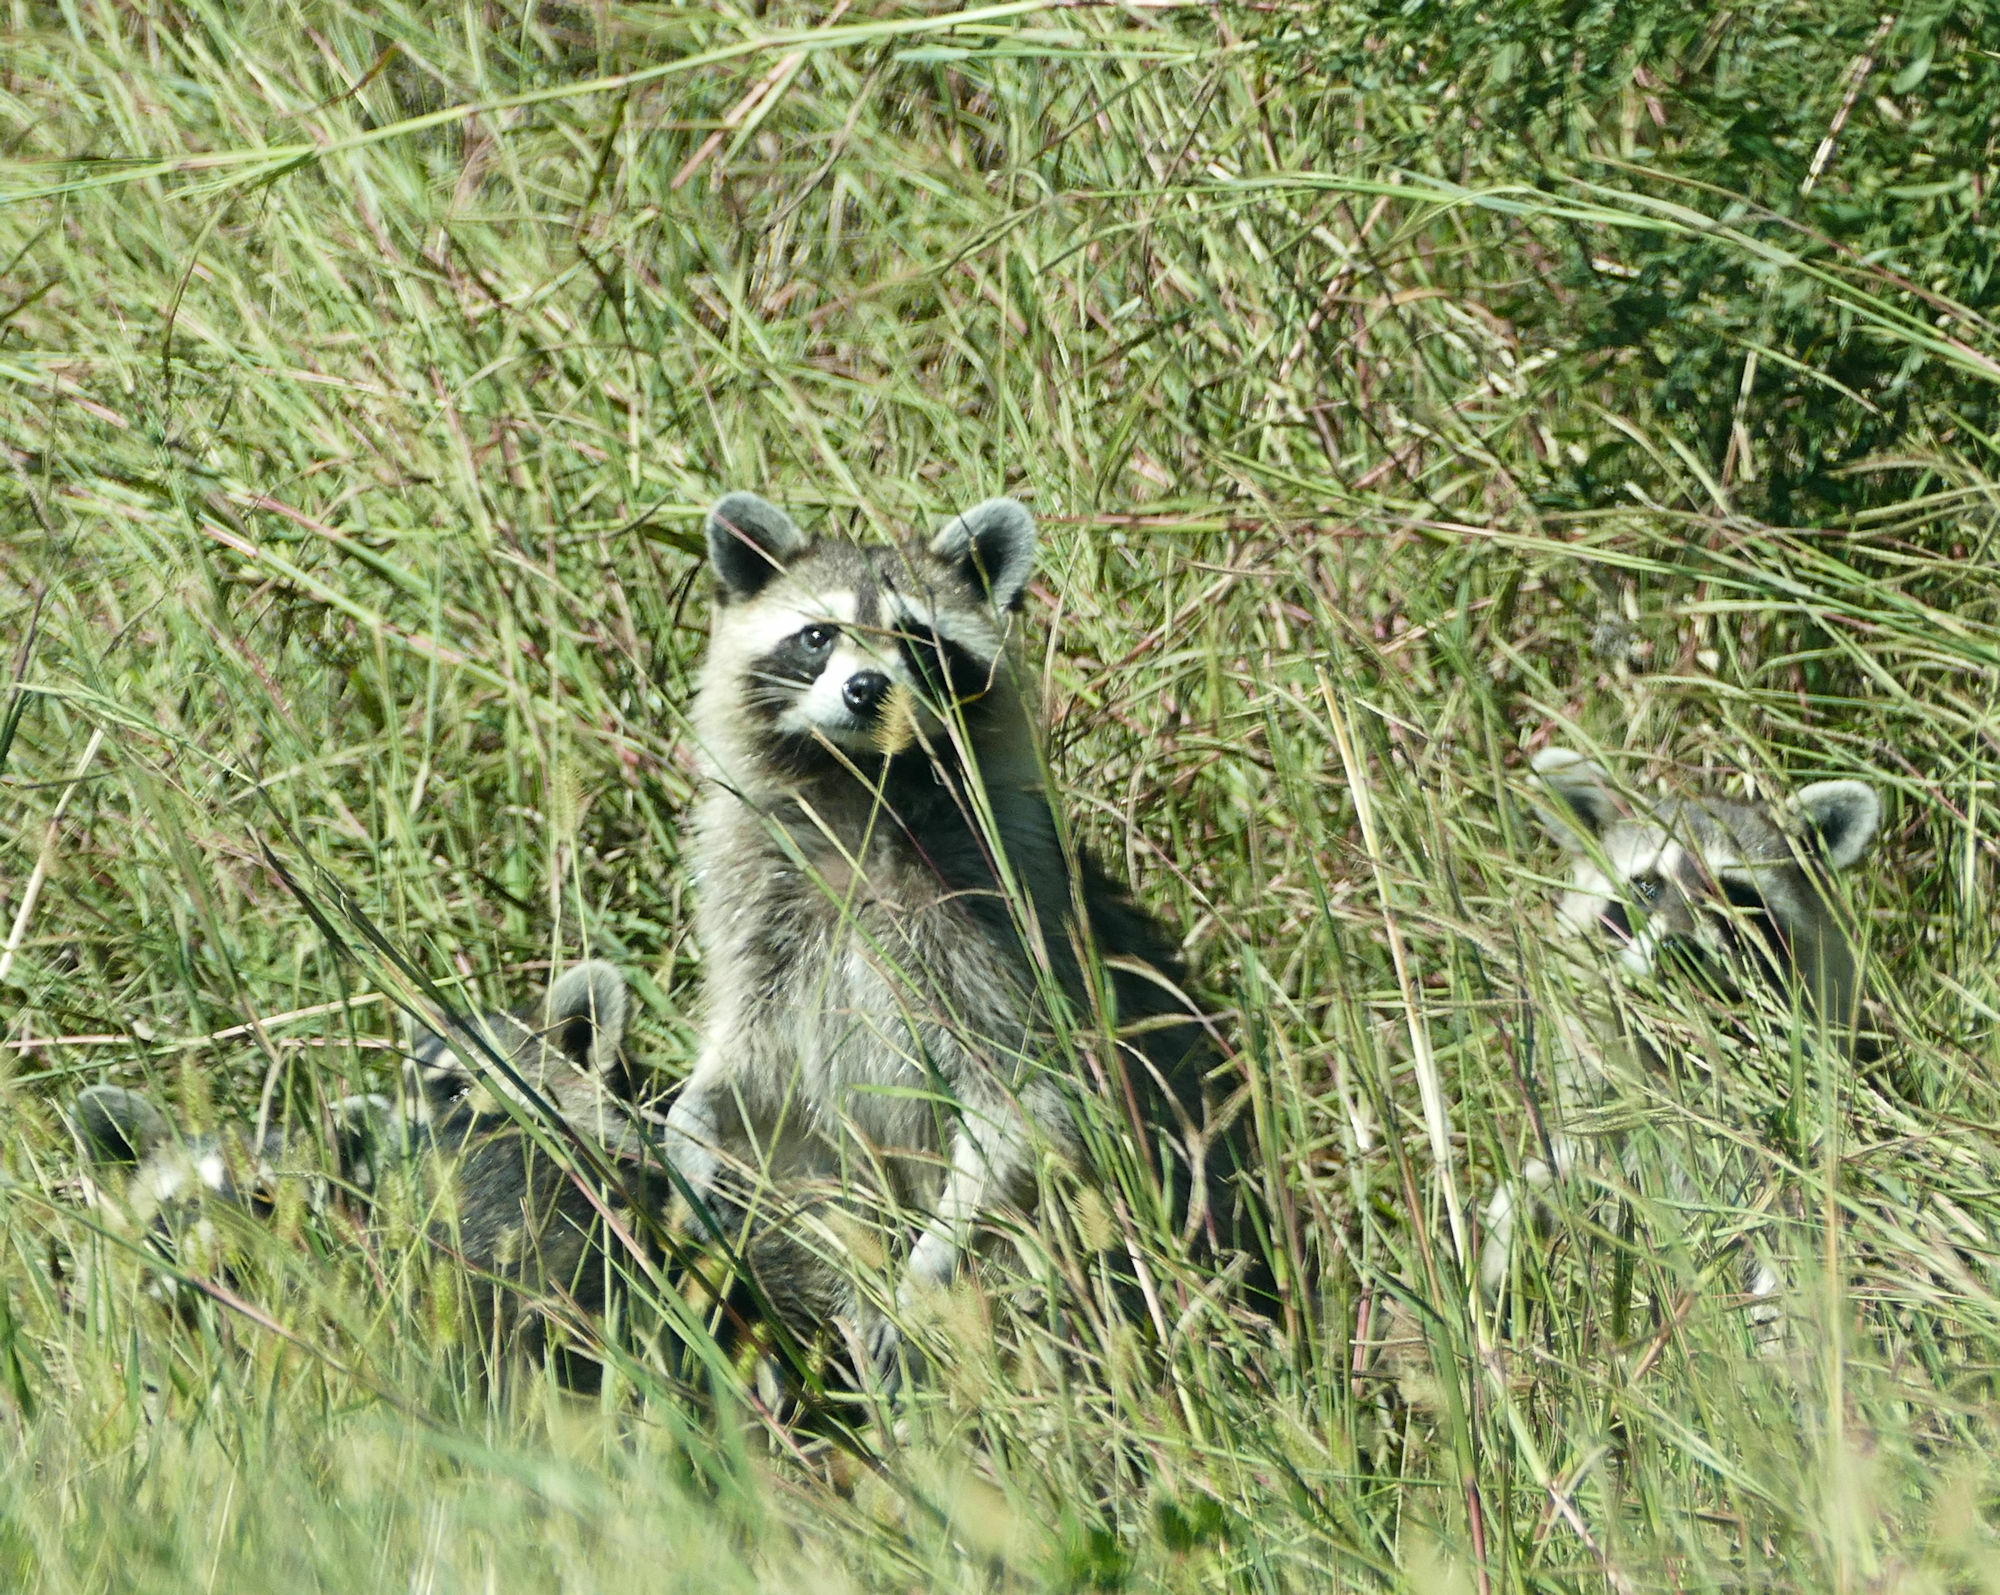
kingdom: Animalia
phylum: Chordata
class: Mammalia
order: Carnivora
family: Procyonidae
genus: Procyon
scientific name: Procyon lotor
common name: Raccoon
